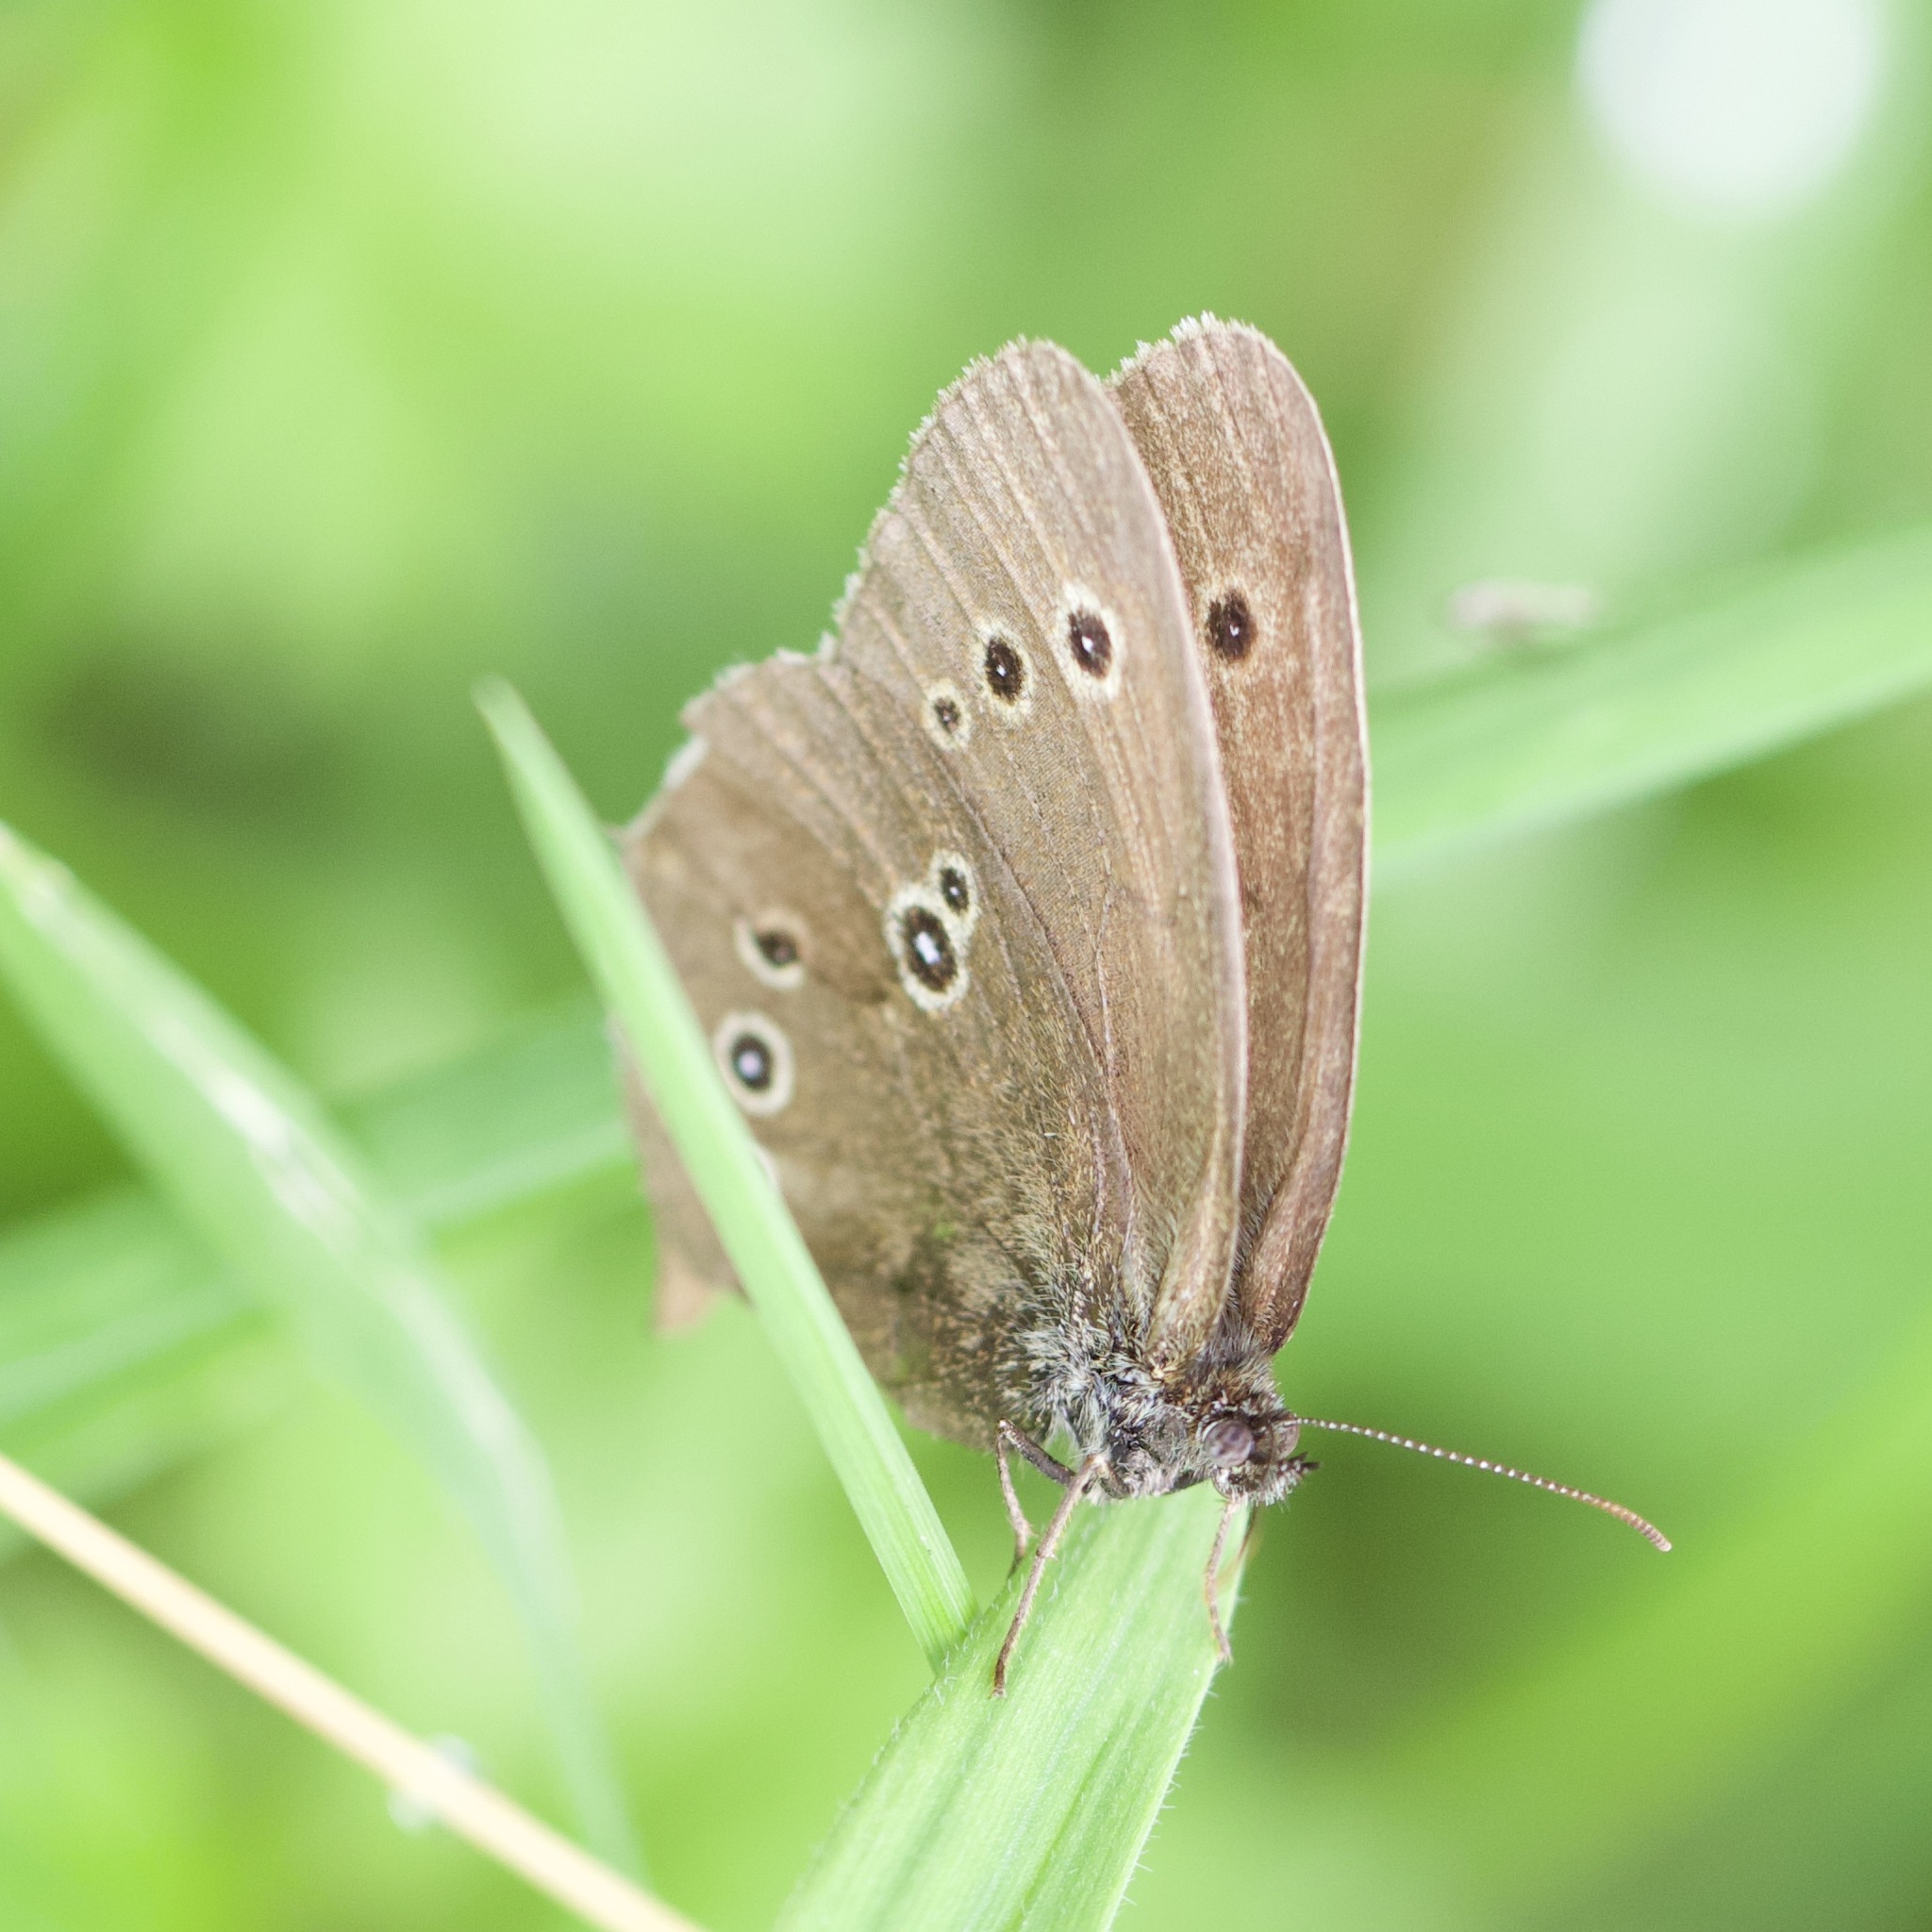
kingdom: Animalia
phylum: Arthropoda
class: Insecta
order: Lepidoptera
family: Nymphalidae
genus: Aphantopus
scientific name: Aphantopus hyperantus
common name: Ringlet
